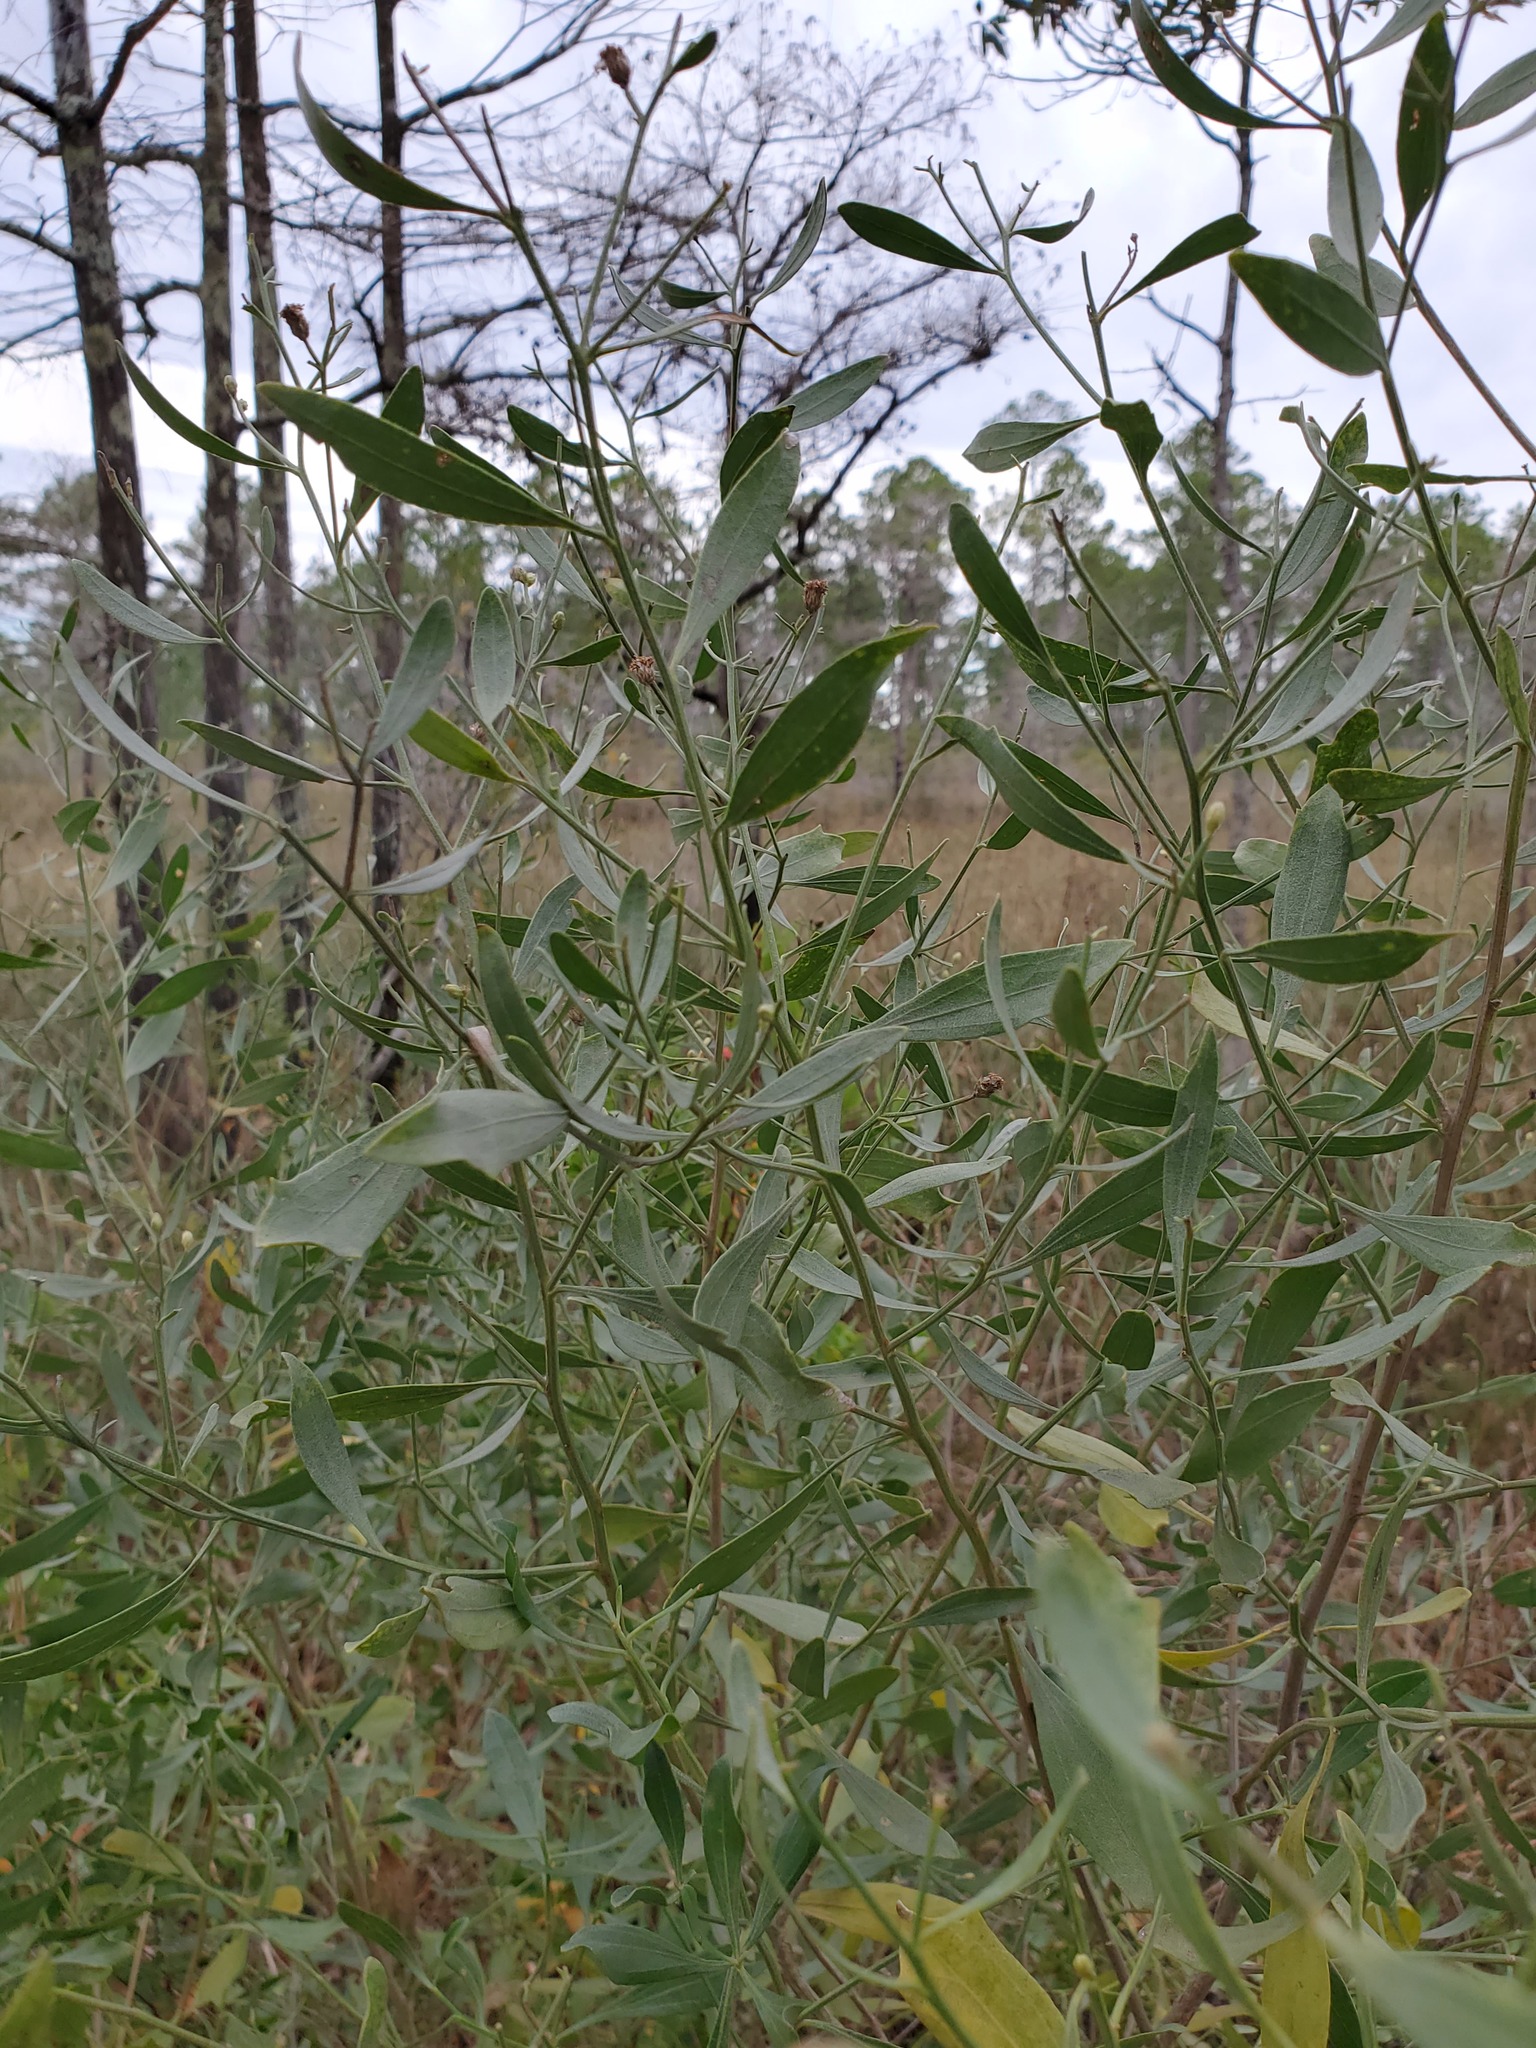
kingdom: Plantae
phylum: Tracheophyta
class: Magnoliopsida
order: Asterales
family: Asteraceae
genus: Baccharis
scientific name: Baccharis halimifolia
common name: Eastern baccharis
